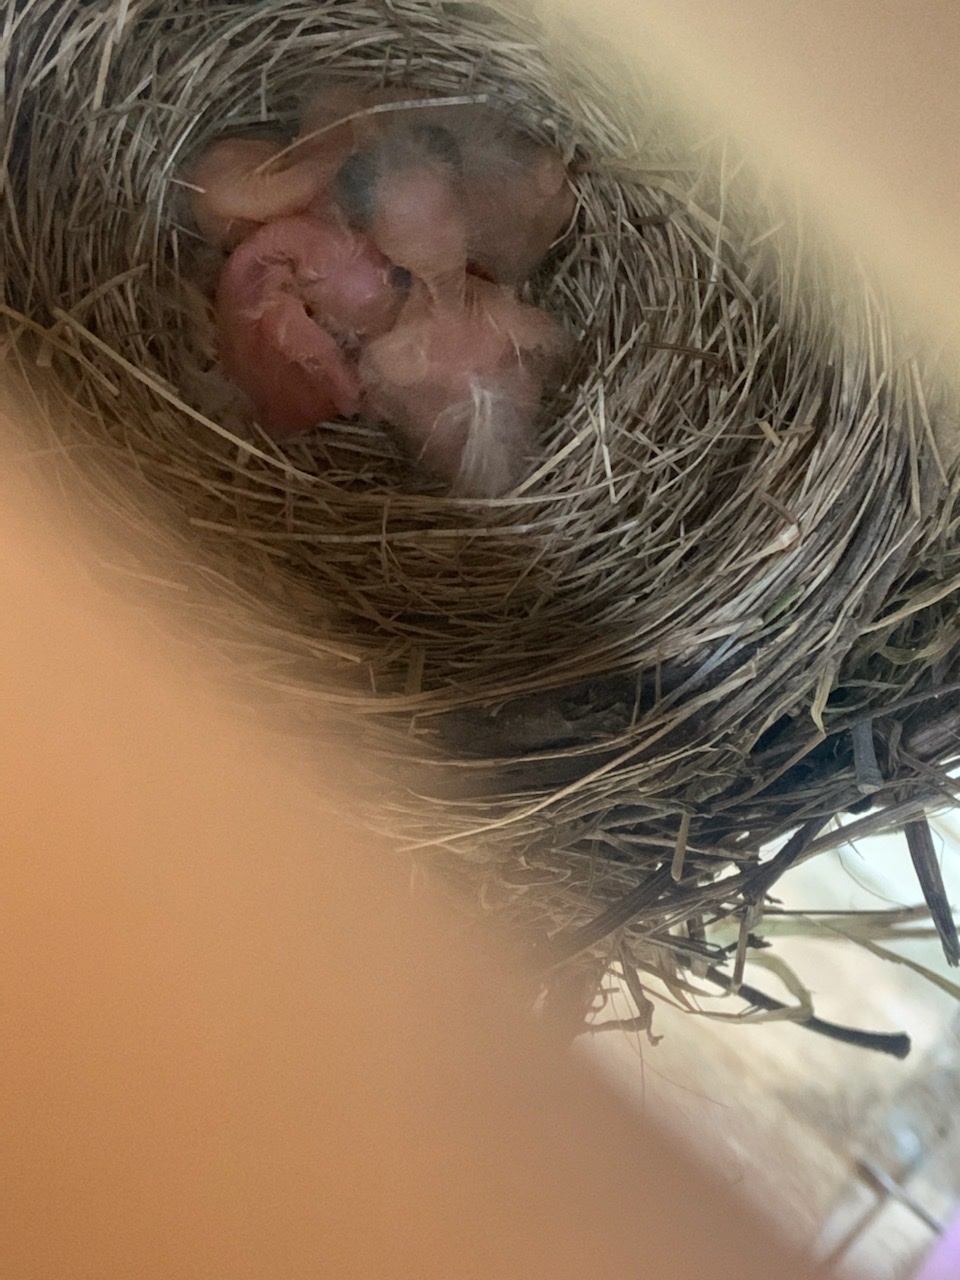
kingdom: Animalia
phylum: Chordata
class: Aves
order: Passeriformes
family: Turdidae
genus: Turdus
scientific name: Turdus migratorius
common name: American robin
